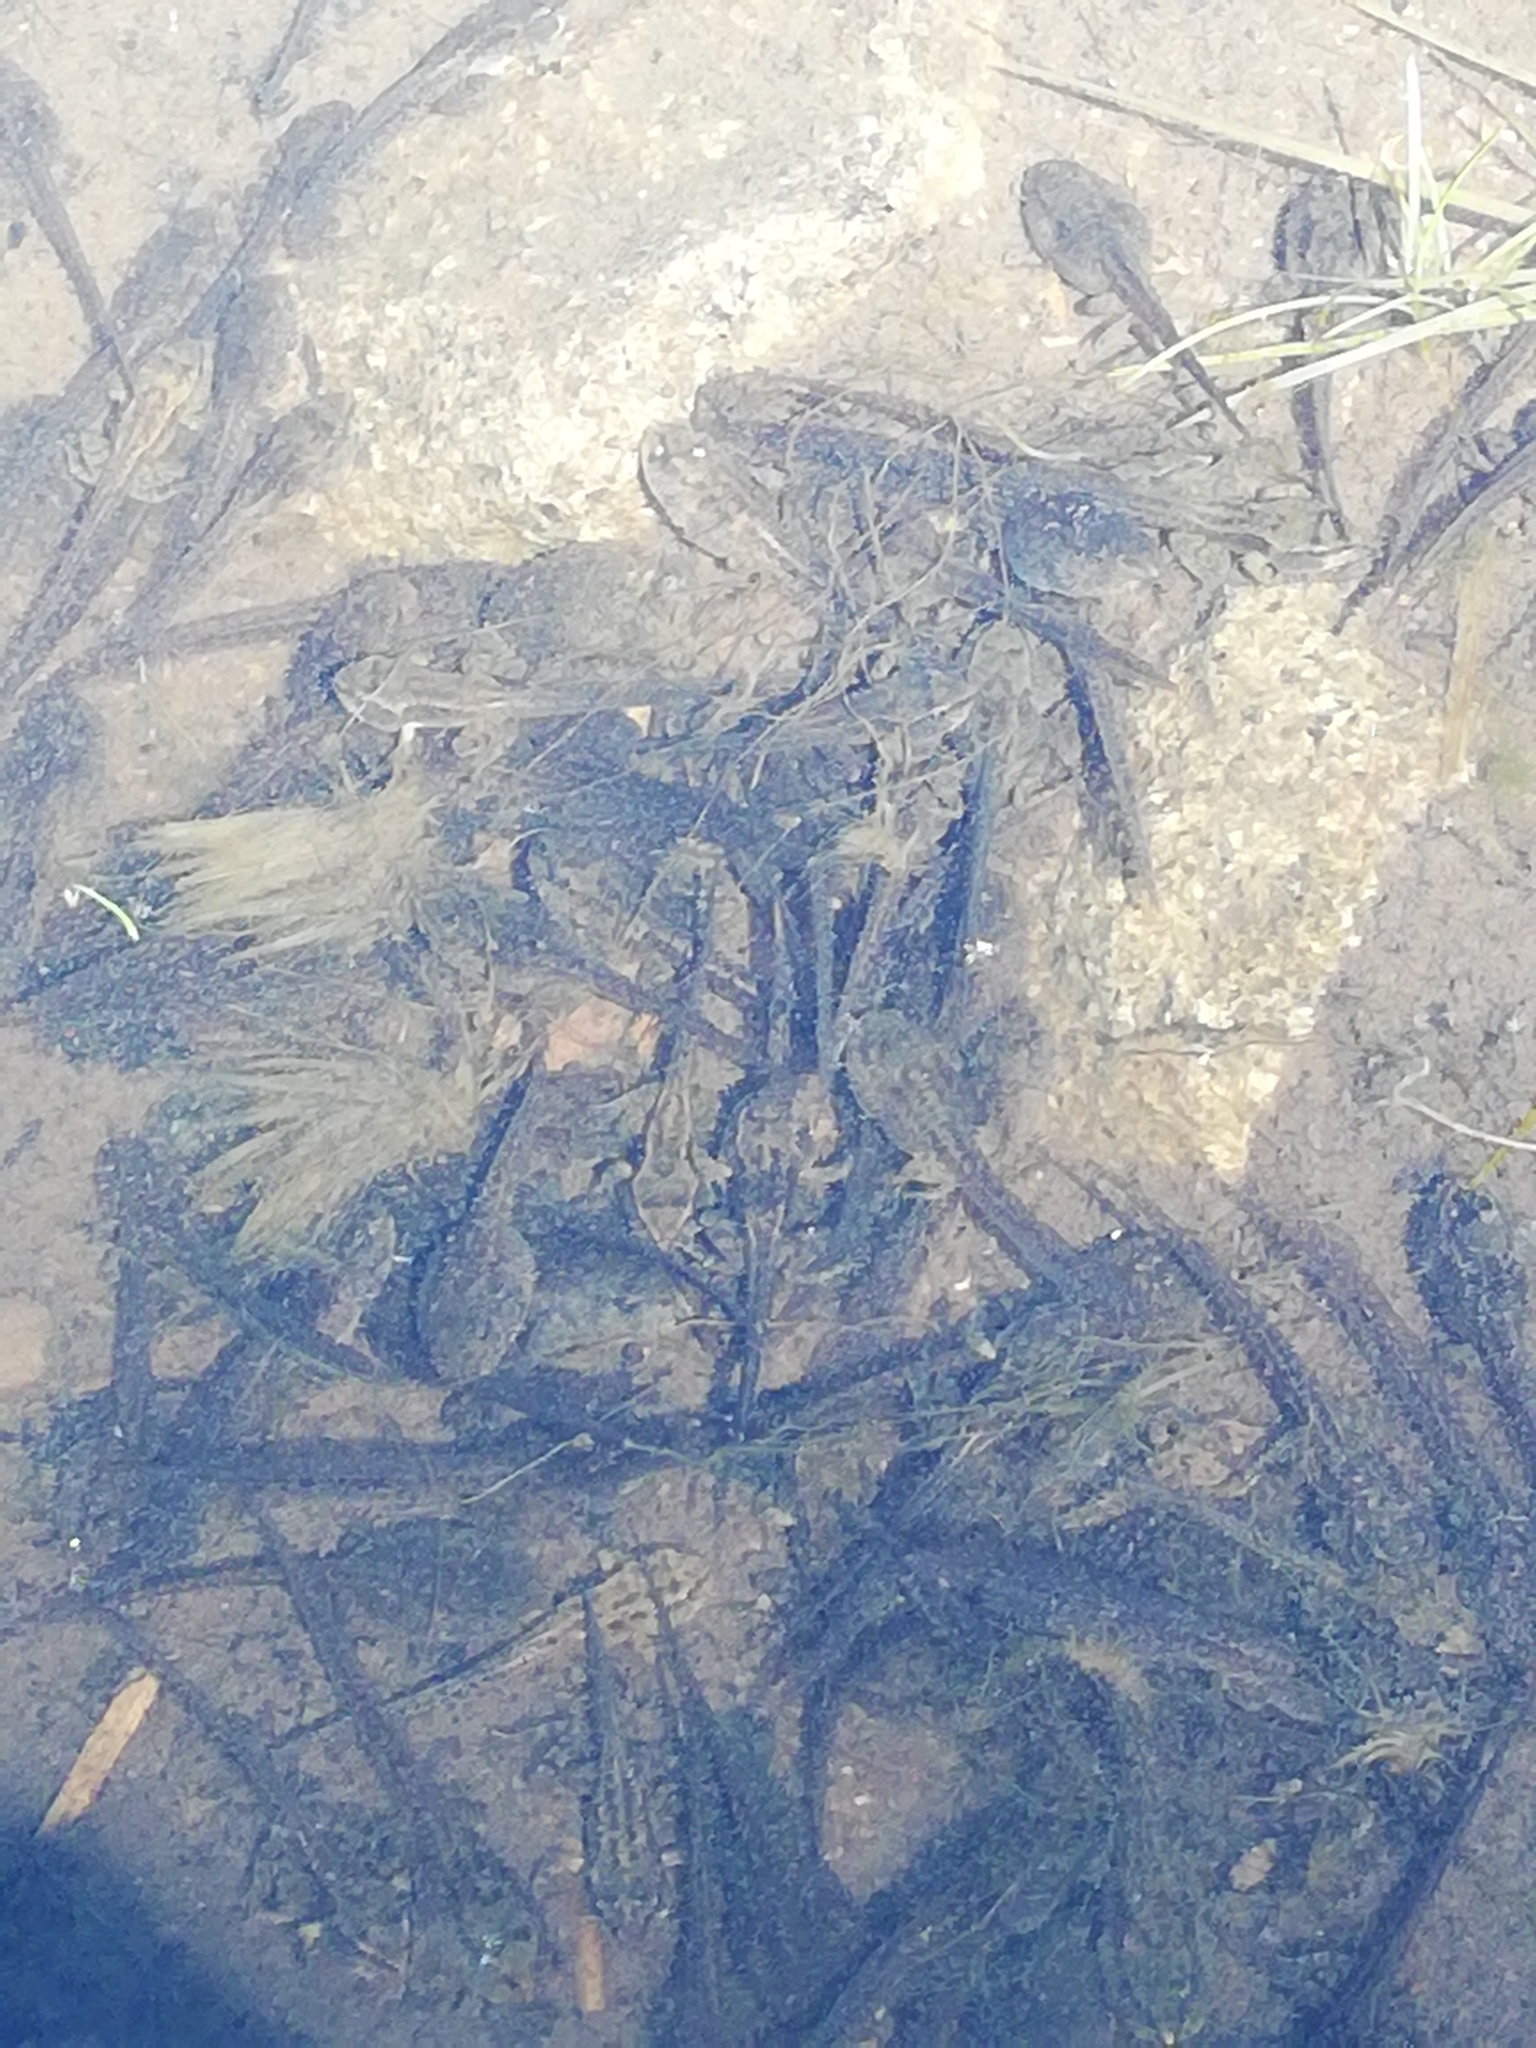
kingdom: Animalia
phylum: Chordata
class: Amphibia
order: Anura
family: Ranidae
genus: Rana
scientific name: Rana temporaria
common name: Common frog
